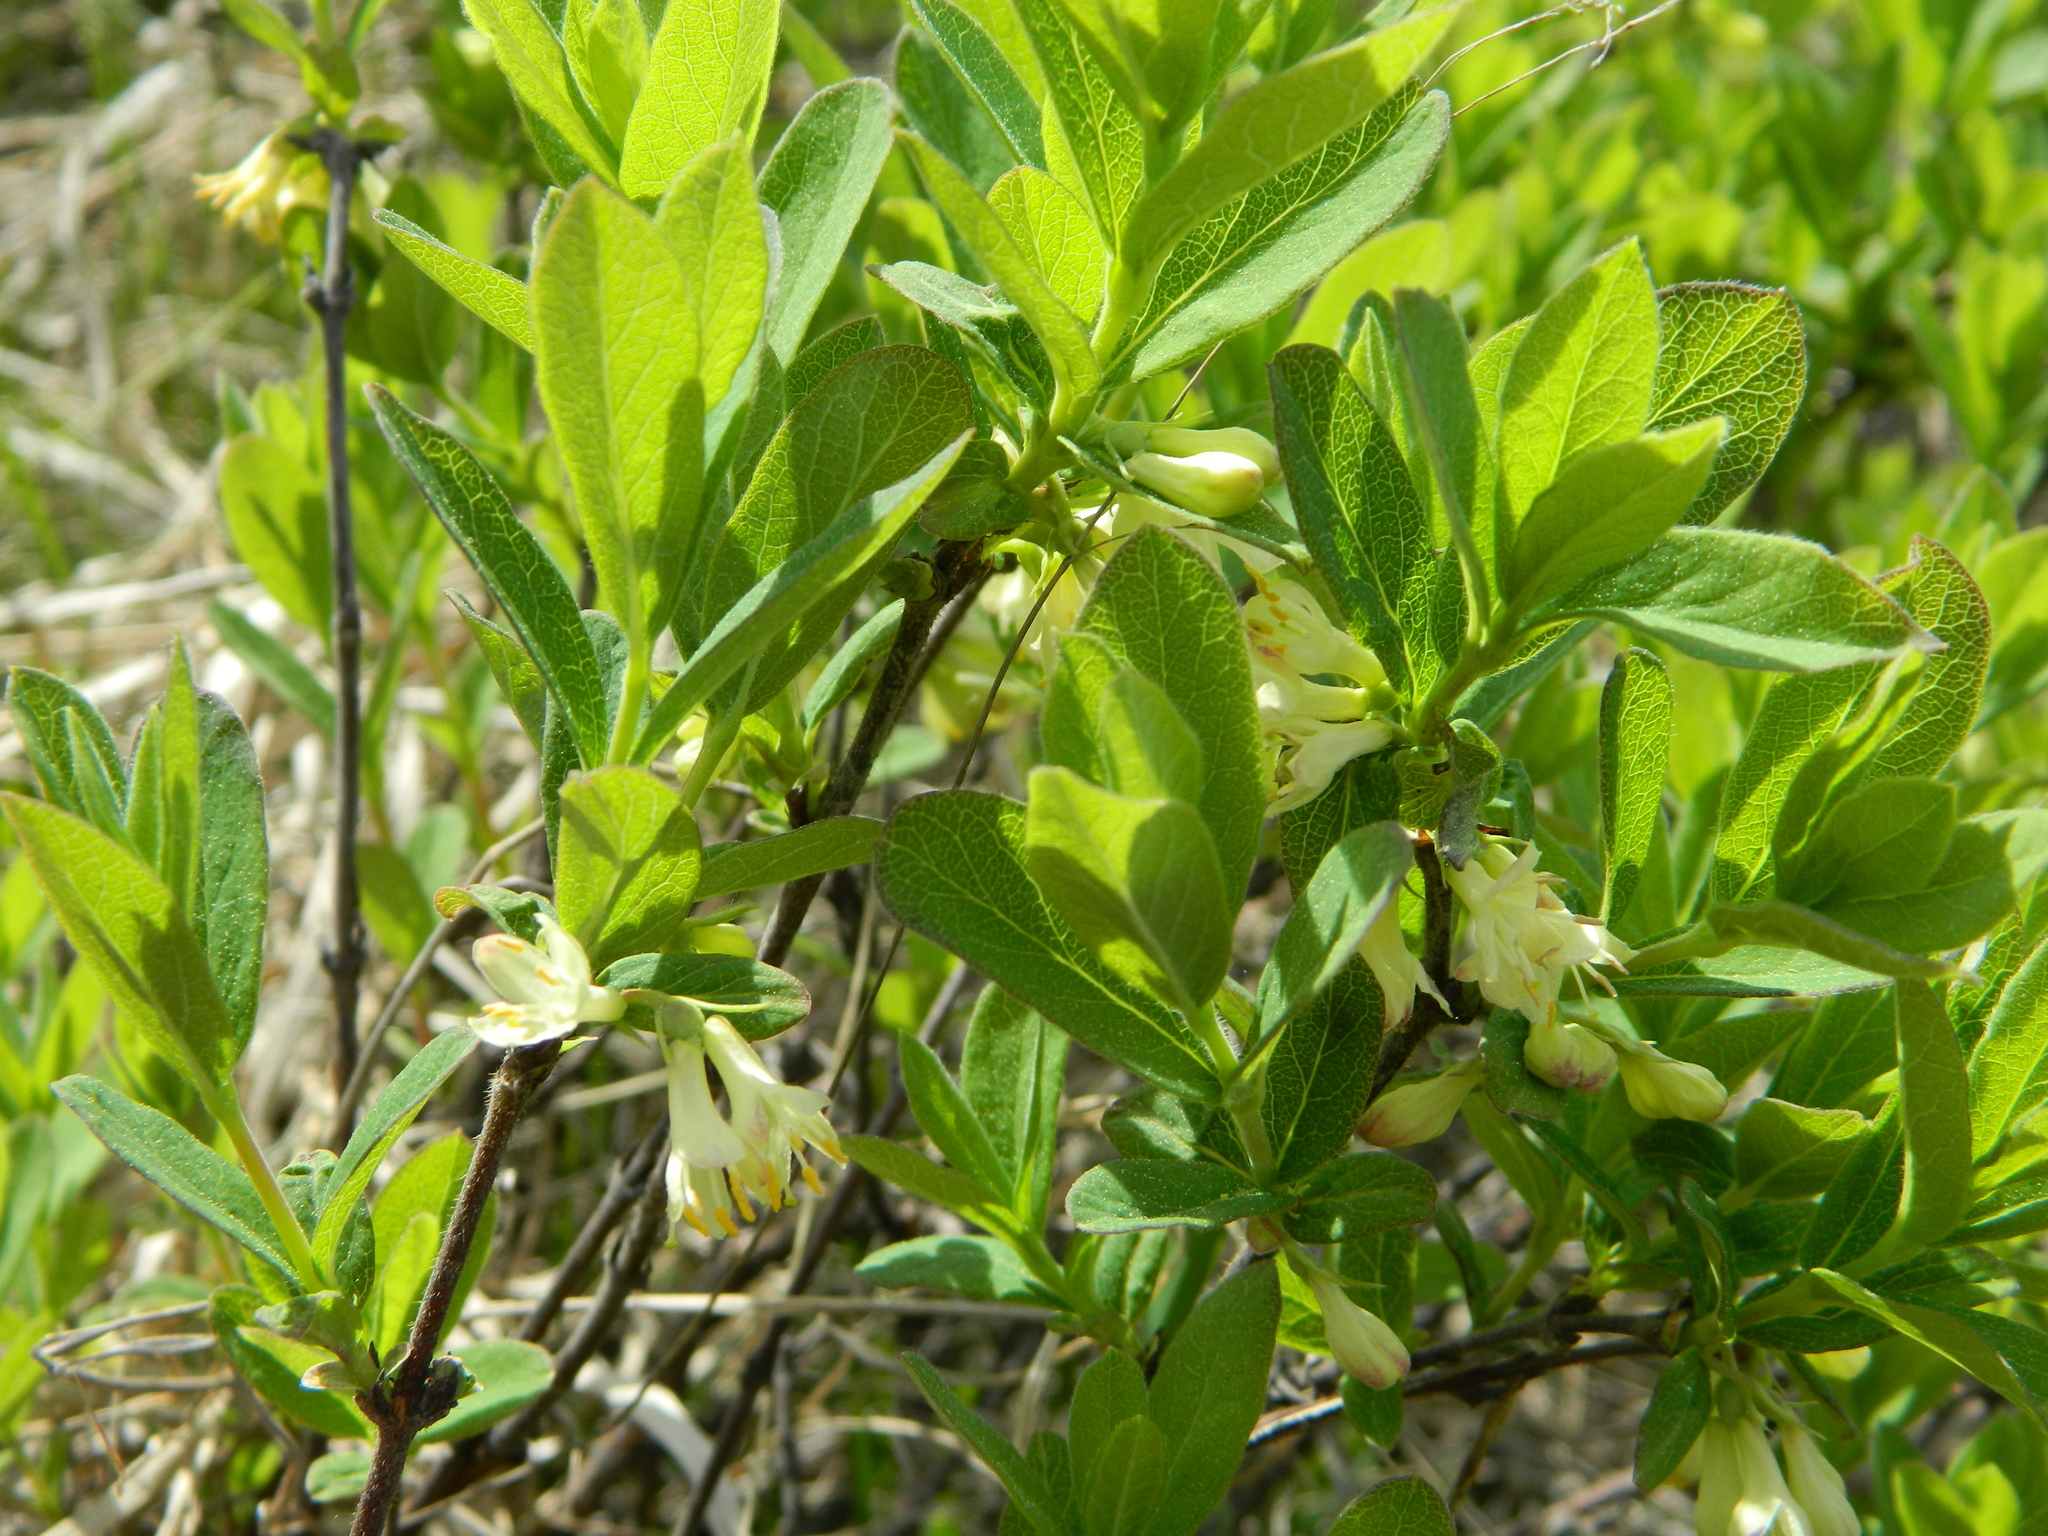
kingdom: Plantae
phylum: Tracheophyta
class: Magnoliopsida
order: Dipsacales
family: Caprifoliaceae
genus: Lonicera
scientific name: Lonicera villosa
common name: Mountain fly-honeysuckle
